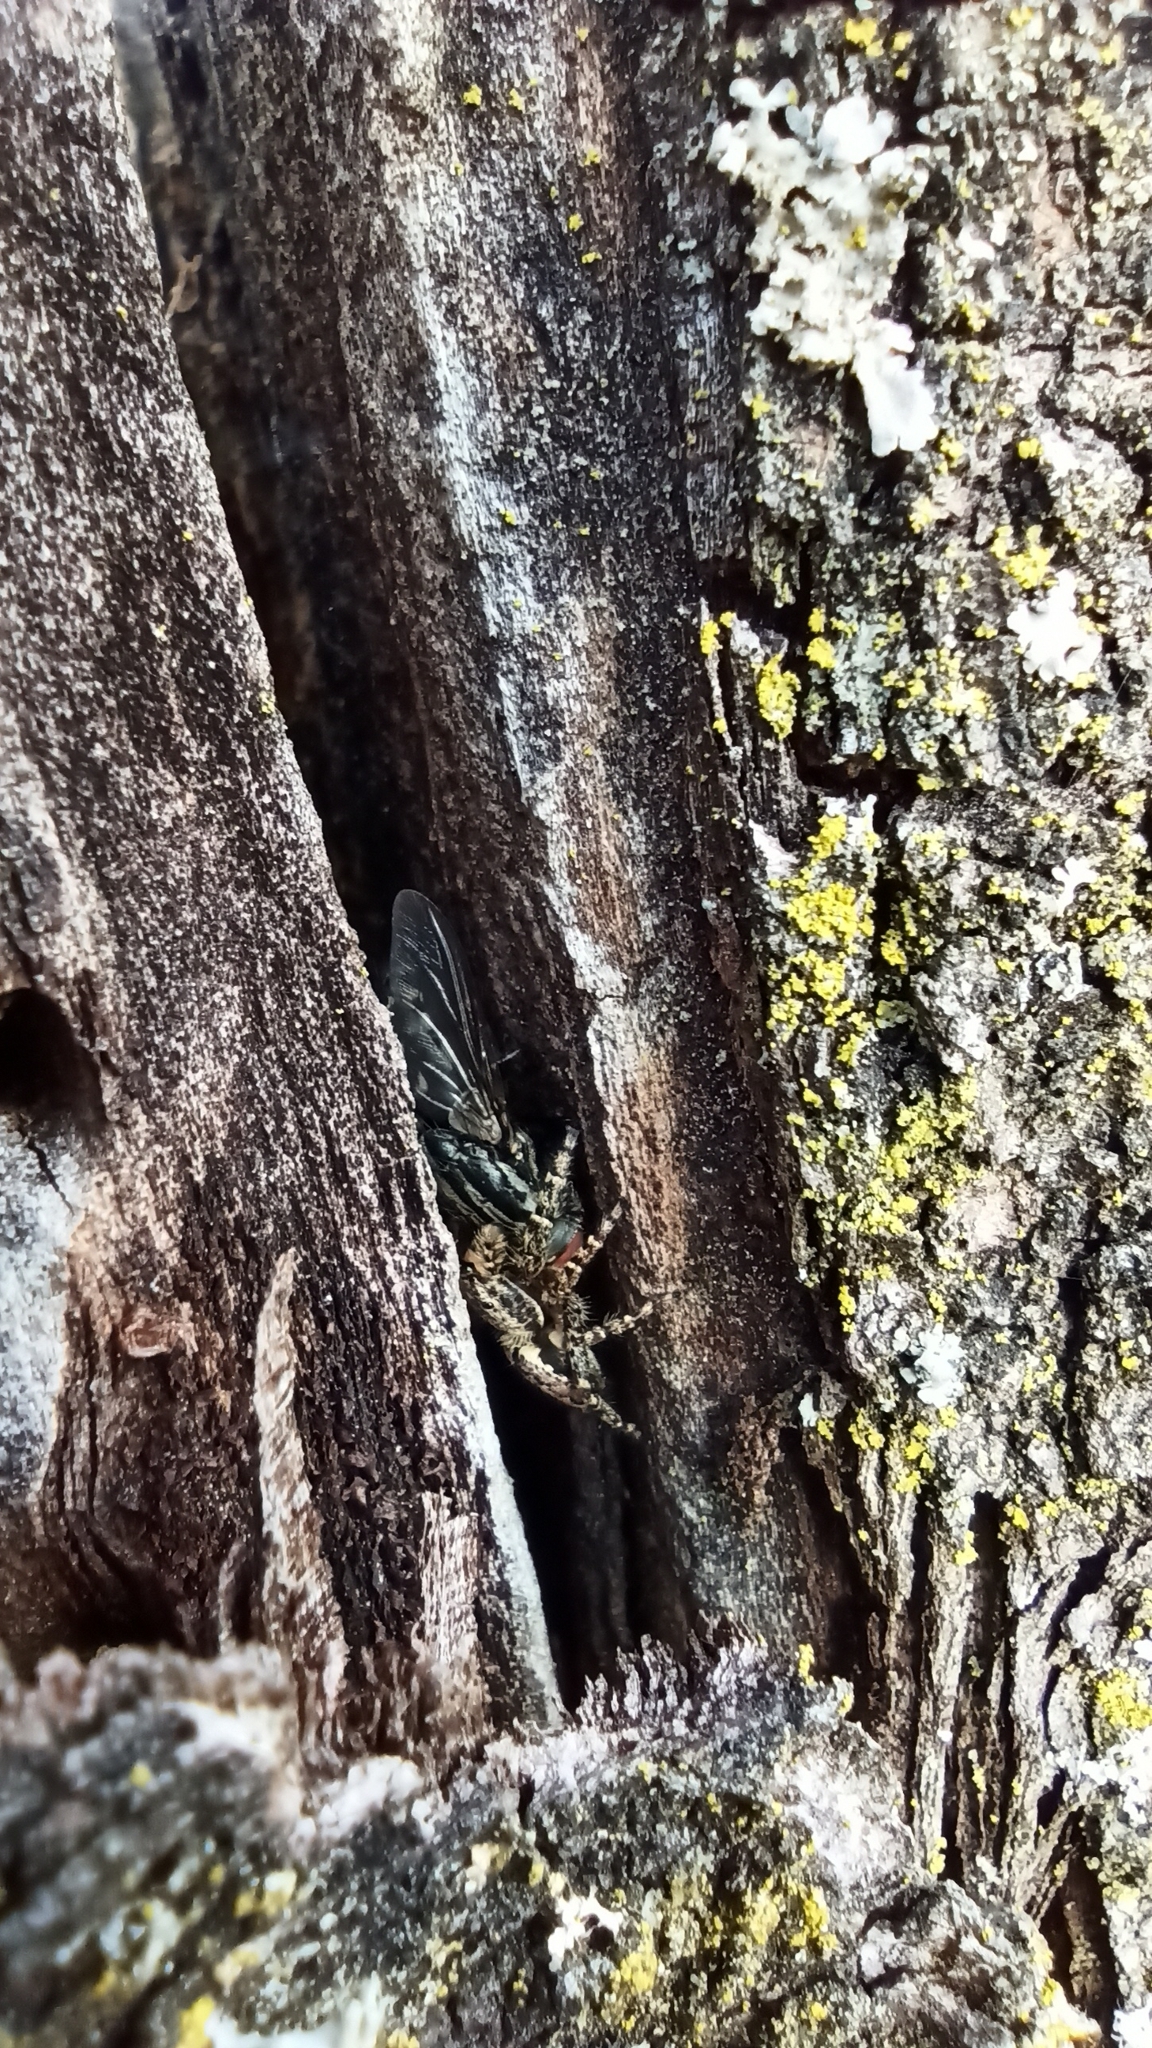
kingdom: Animalia
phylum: Arthropoda
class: Arachnida
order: Araneae
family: Salticidae
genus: Marpissa
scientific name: Marpissa muscosa
